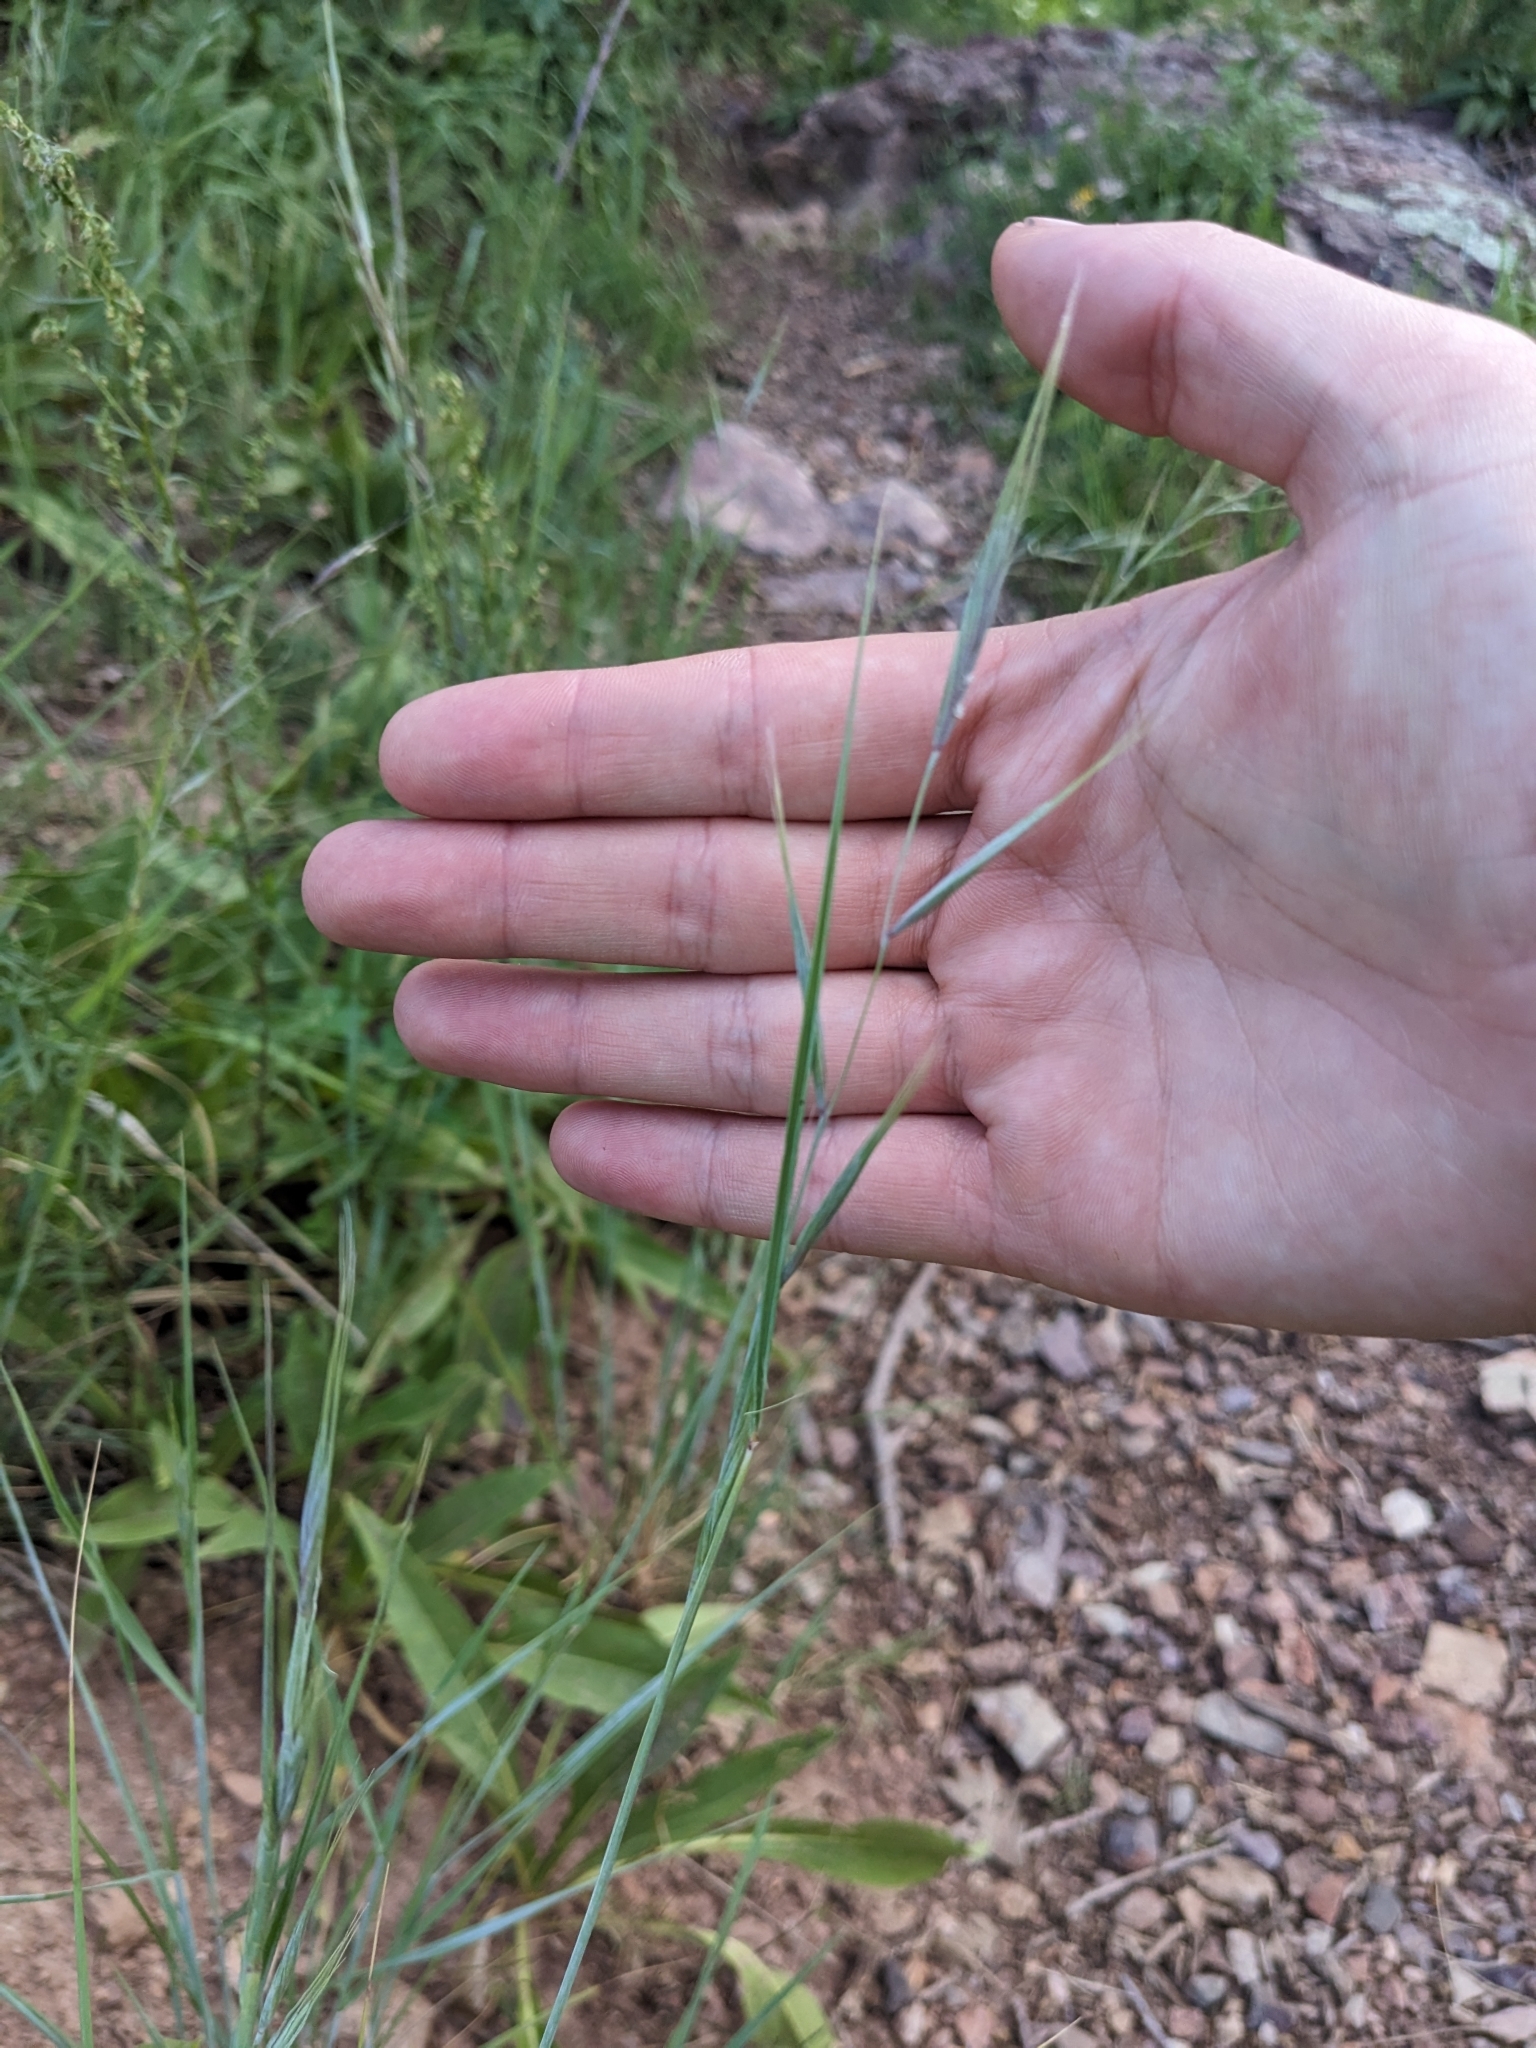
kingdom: Plantae
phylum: Tracheophyta
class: Liliopsida
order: Poales
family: Poaceae
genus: Elymus
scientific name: Elymus arizonicus
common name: Arizona wheatgrass
